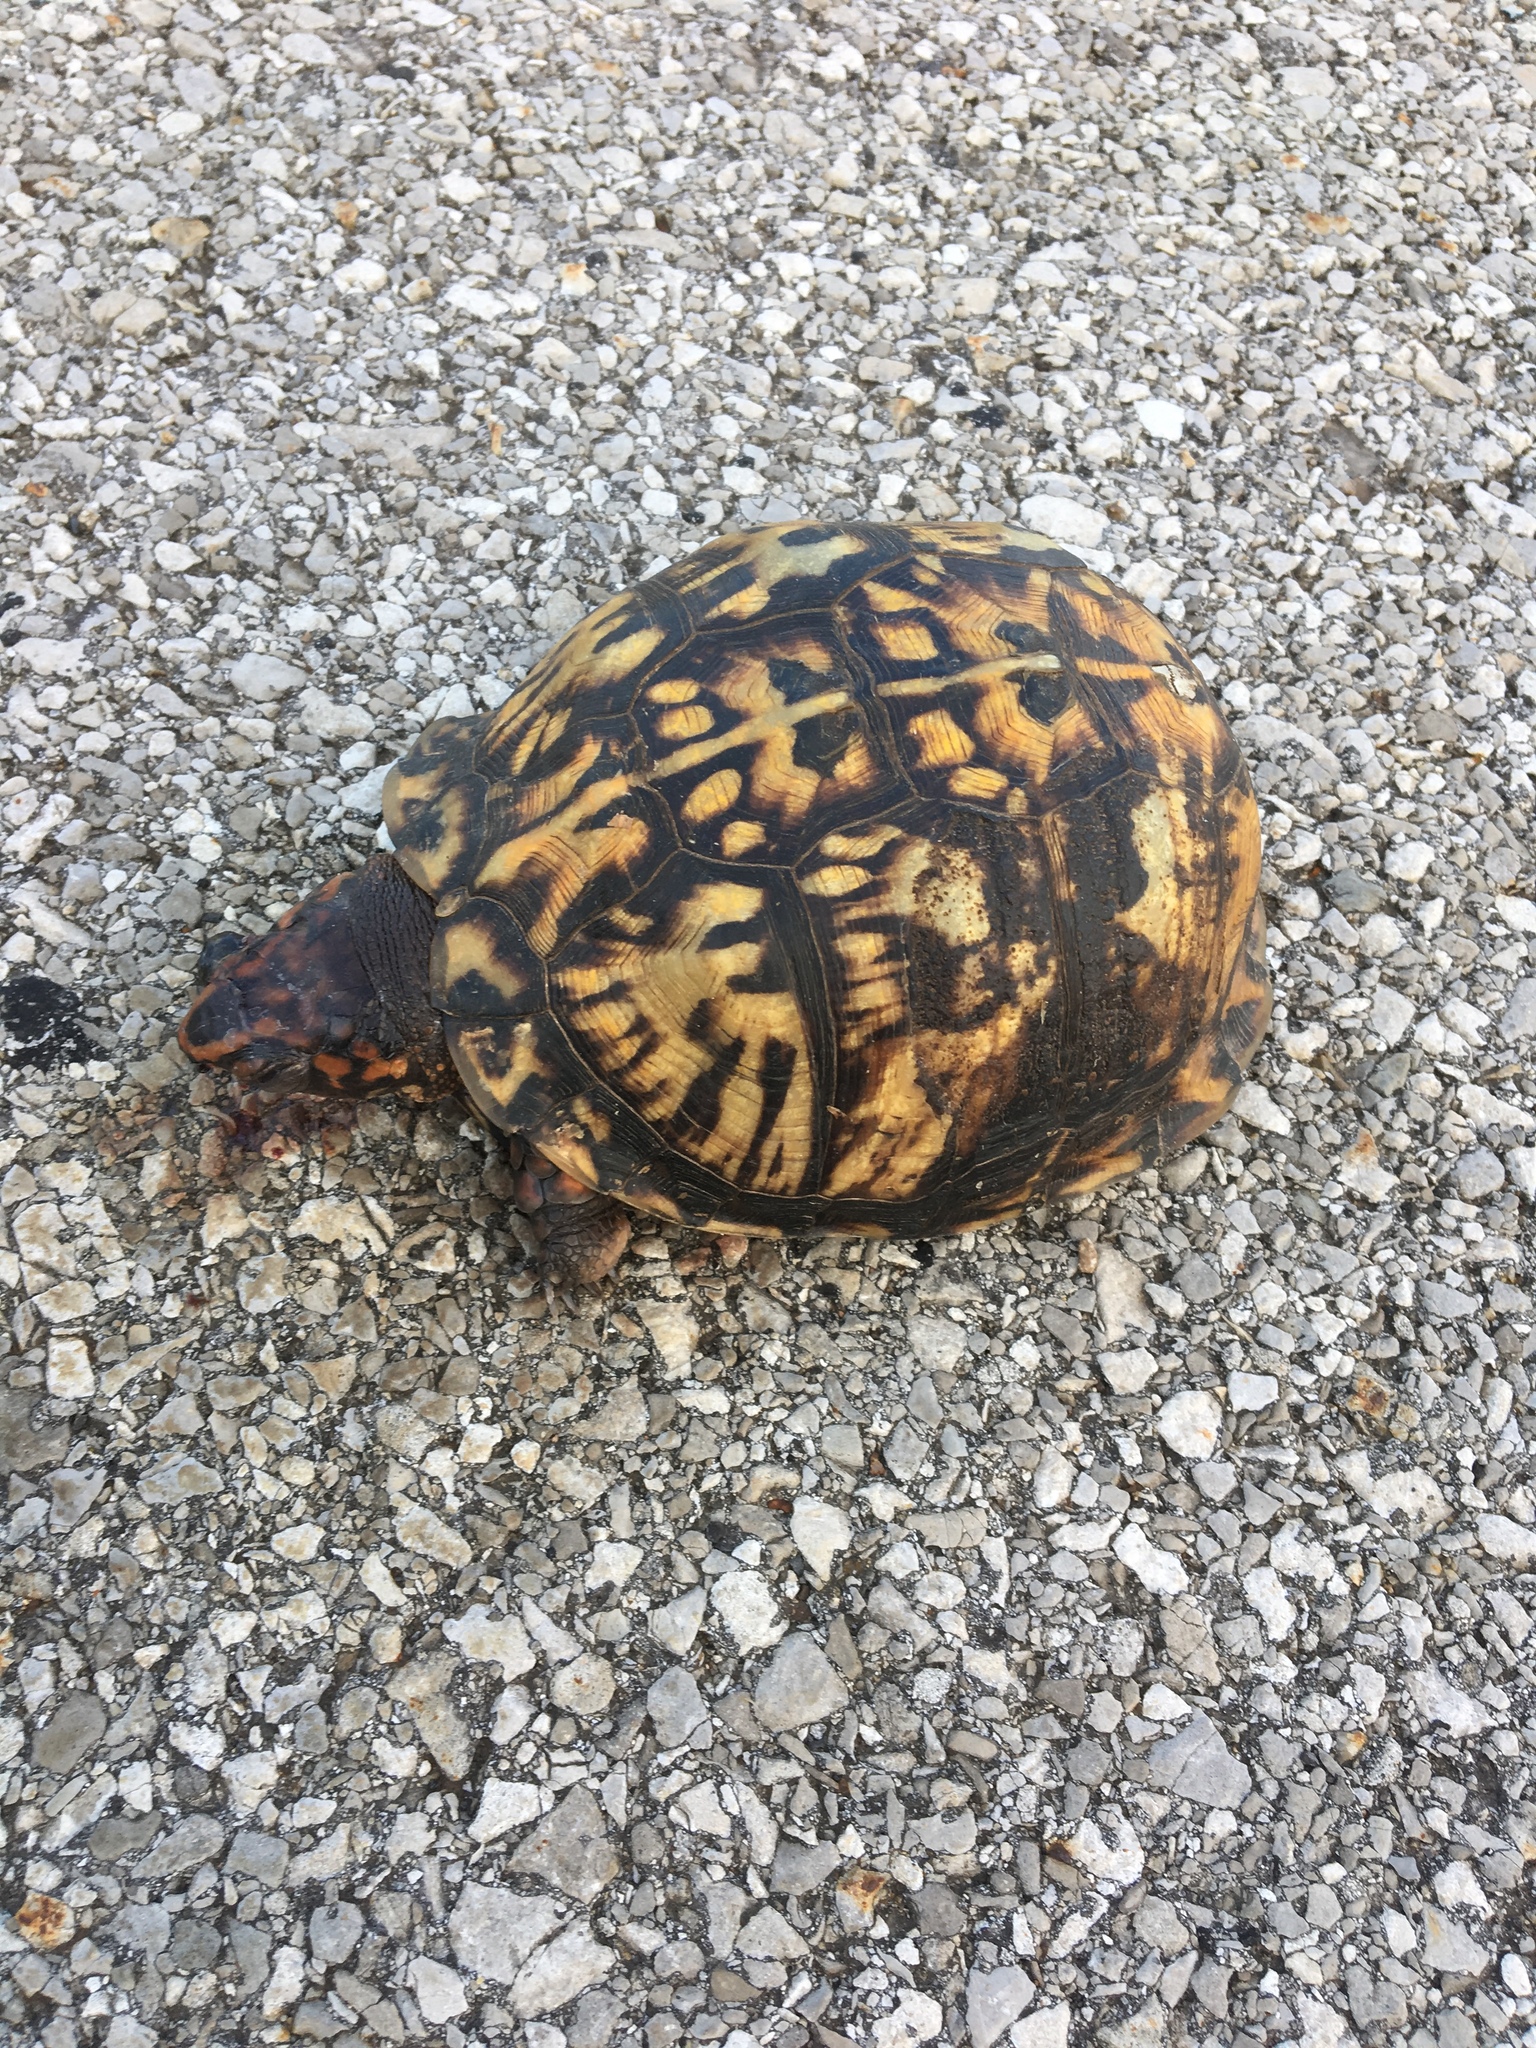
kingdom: Animalia
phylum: Chordata
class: Testudines
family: Emydidae
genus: Terrapene
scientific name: Terrapene carolina
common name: Common box turtle
